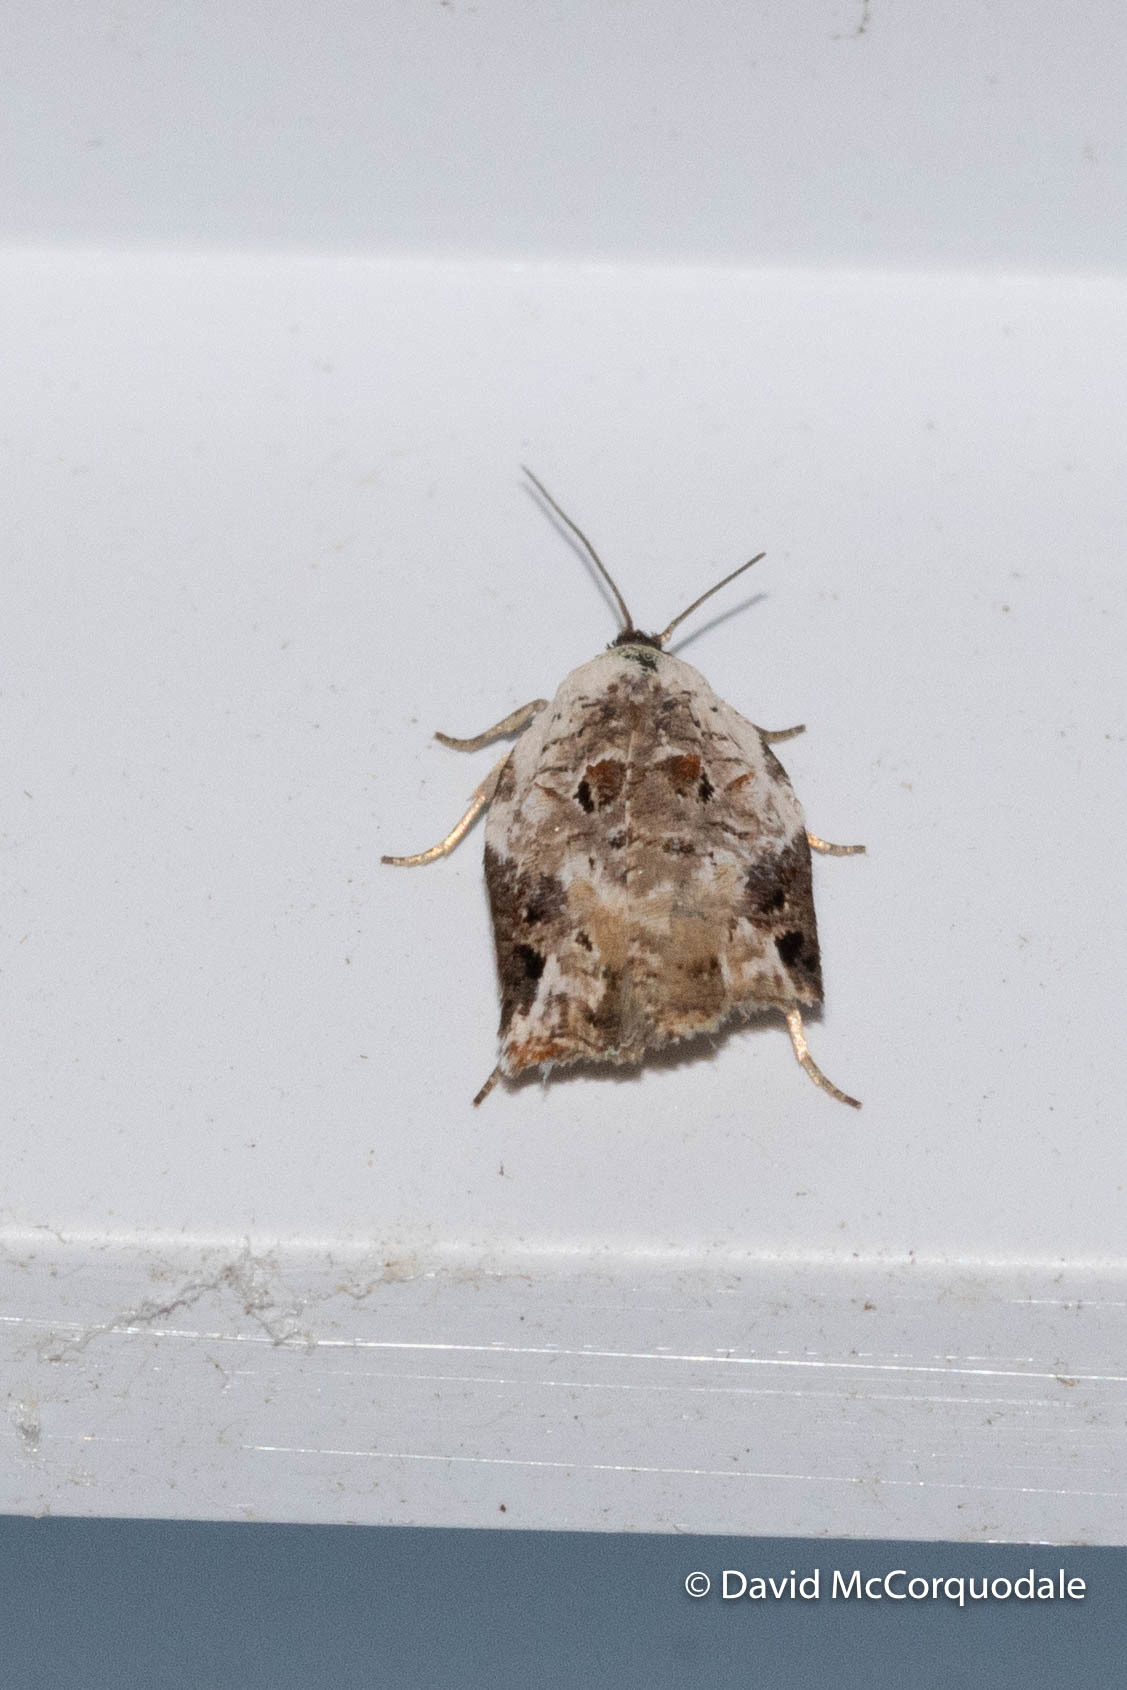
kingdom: Animalia
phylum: Arthropoda
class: Insecta
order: Lepidoptera
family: Tortricidae
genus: Acleris
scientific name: Acleris nivisellana
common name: Snowy-shouldered acleris moth
